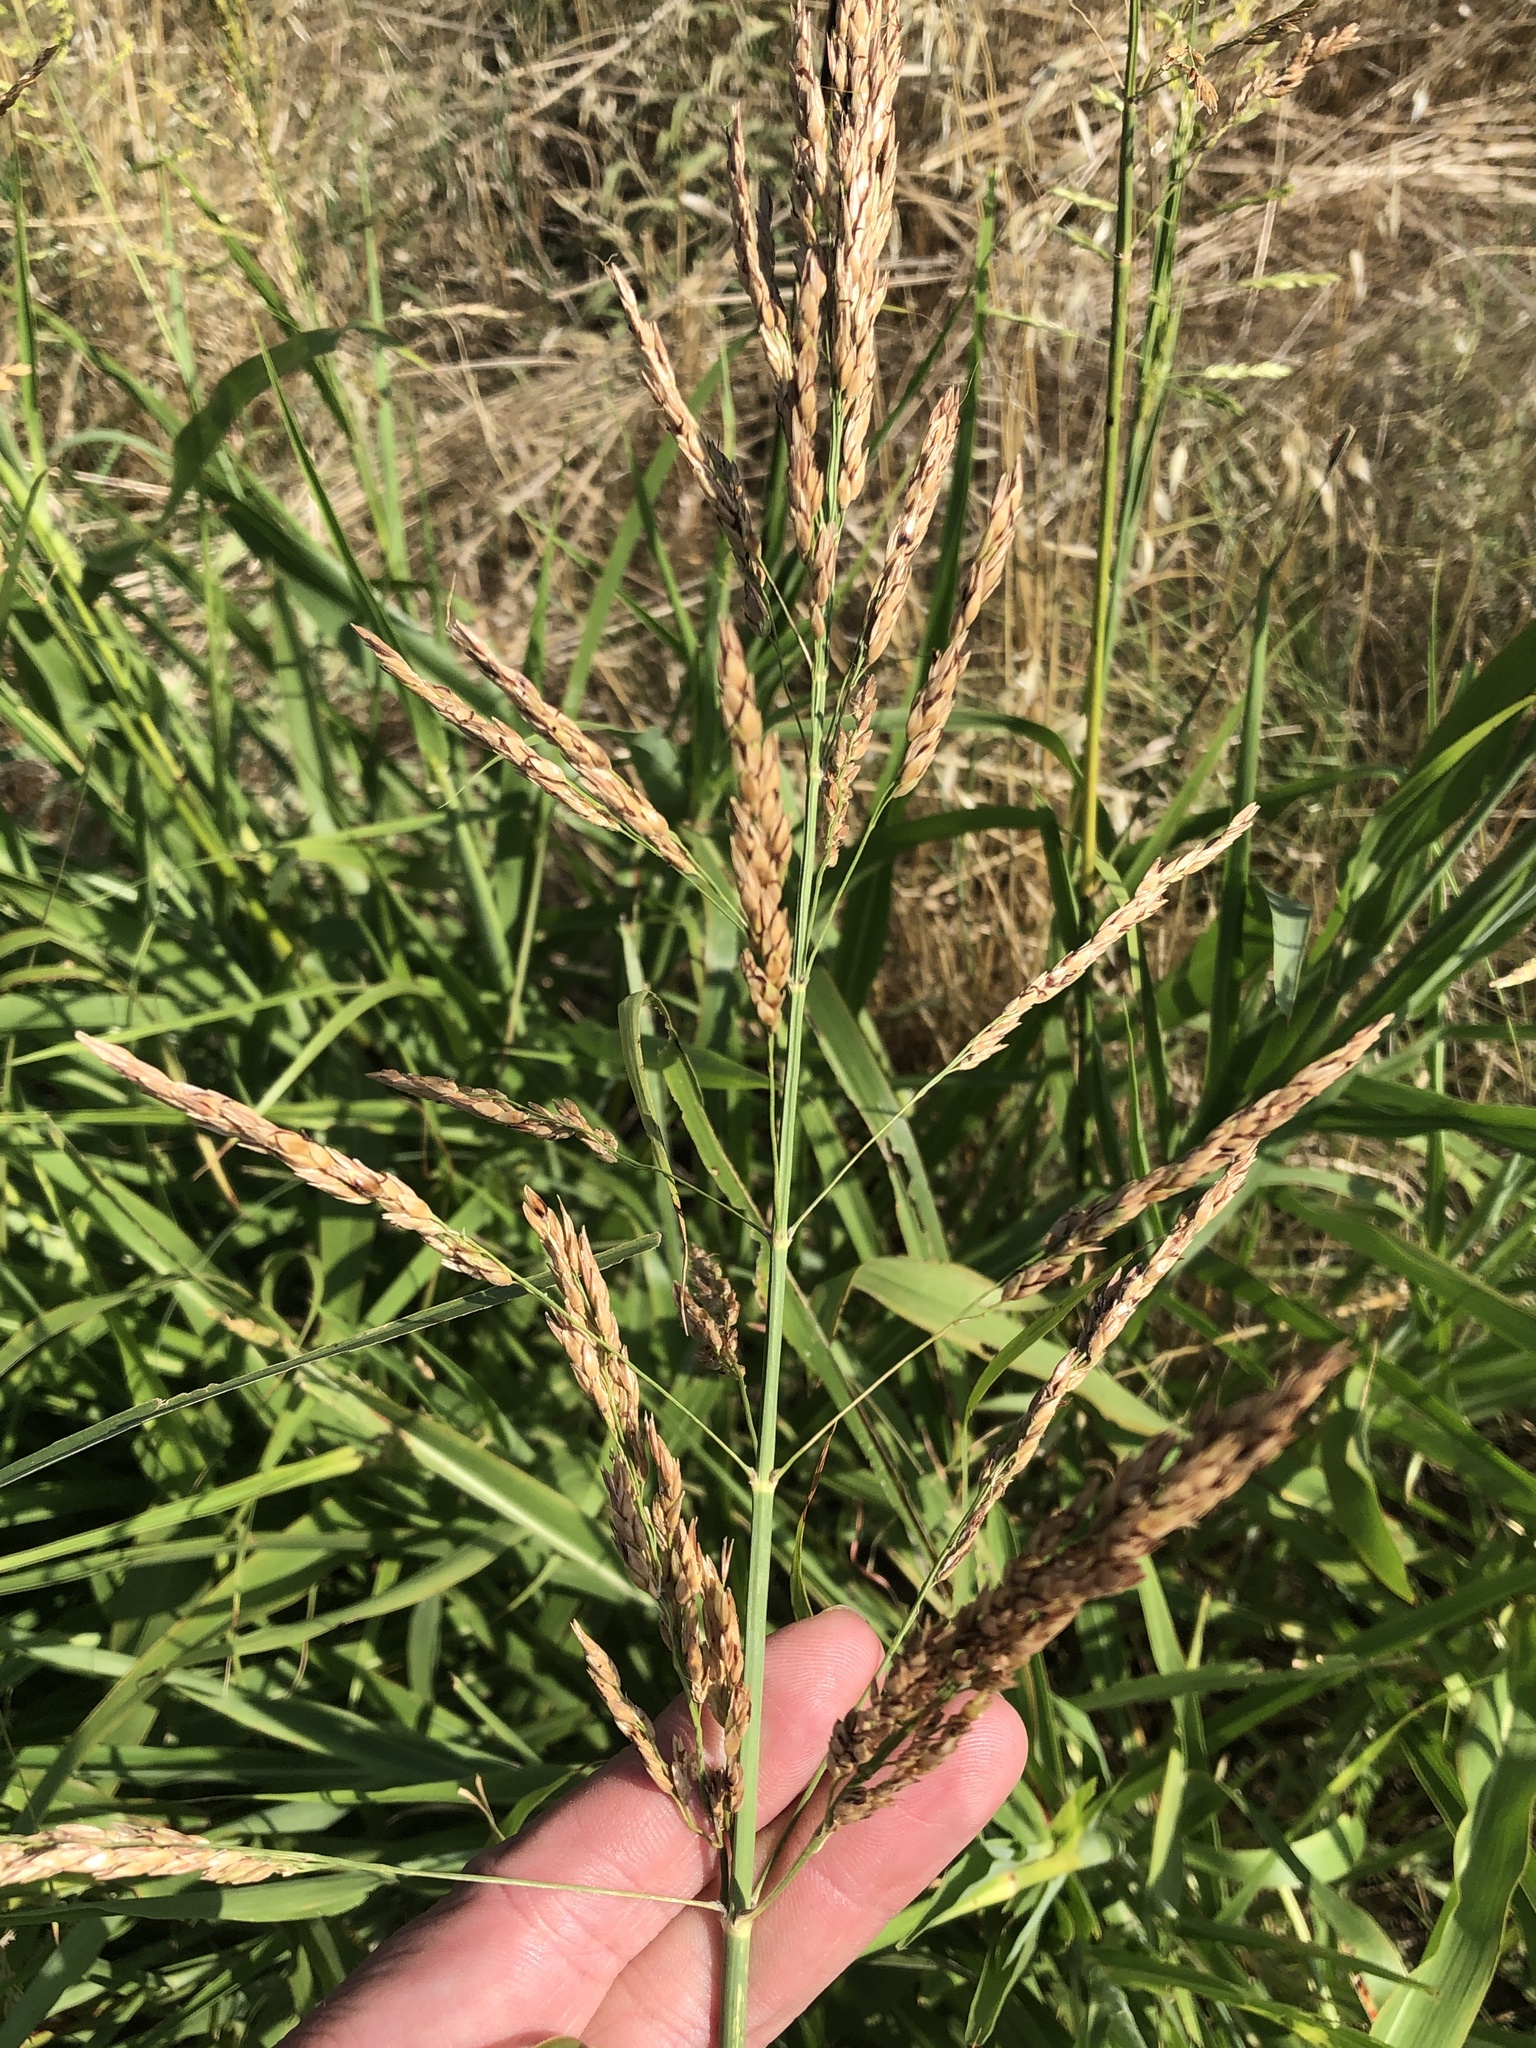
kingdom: Plantae
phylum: Tracheophyta
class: Liliopsida
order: Poales
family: Poaceae
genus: Sorghum
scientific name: Sorghum halepense
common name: Johnson-grass
